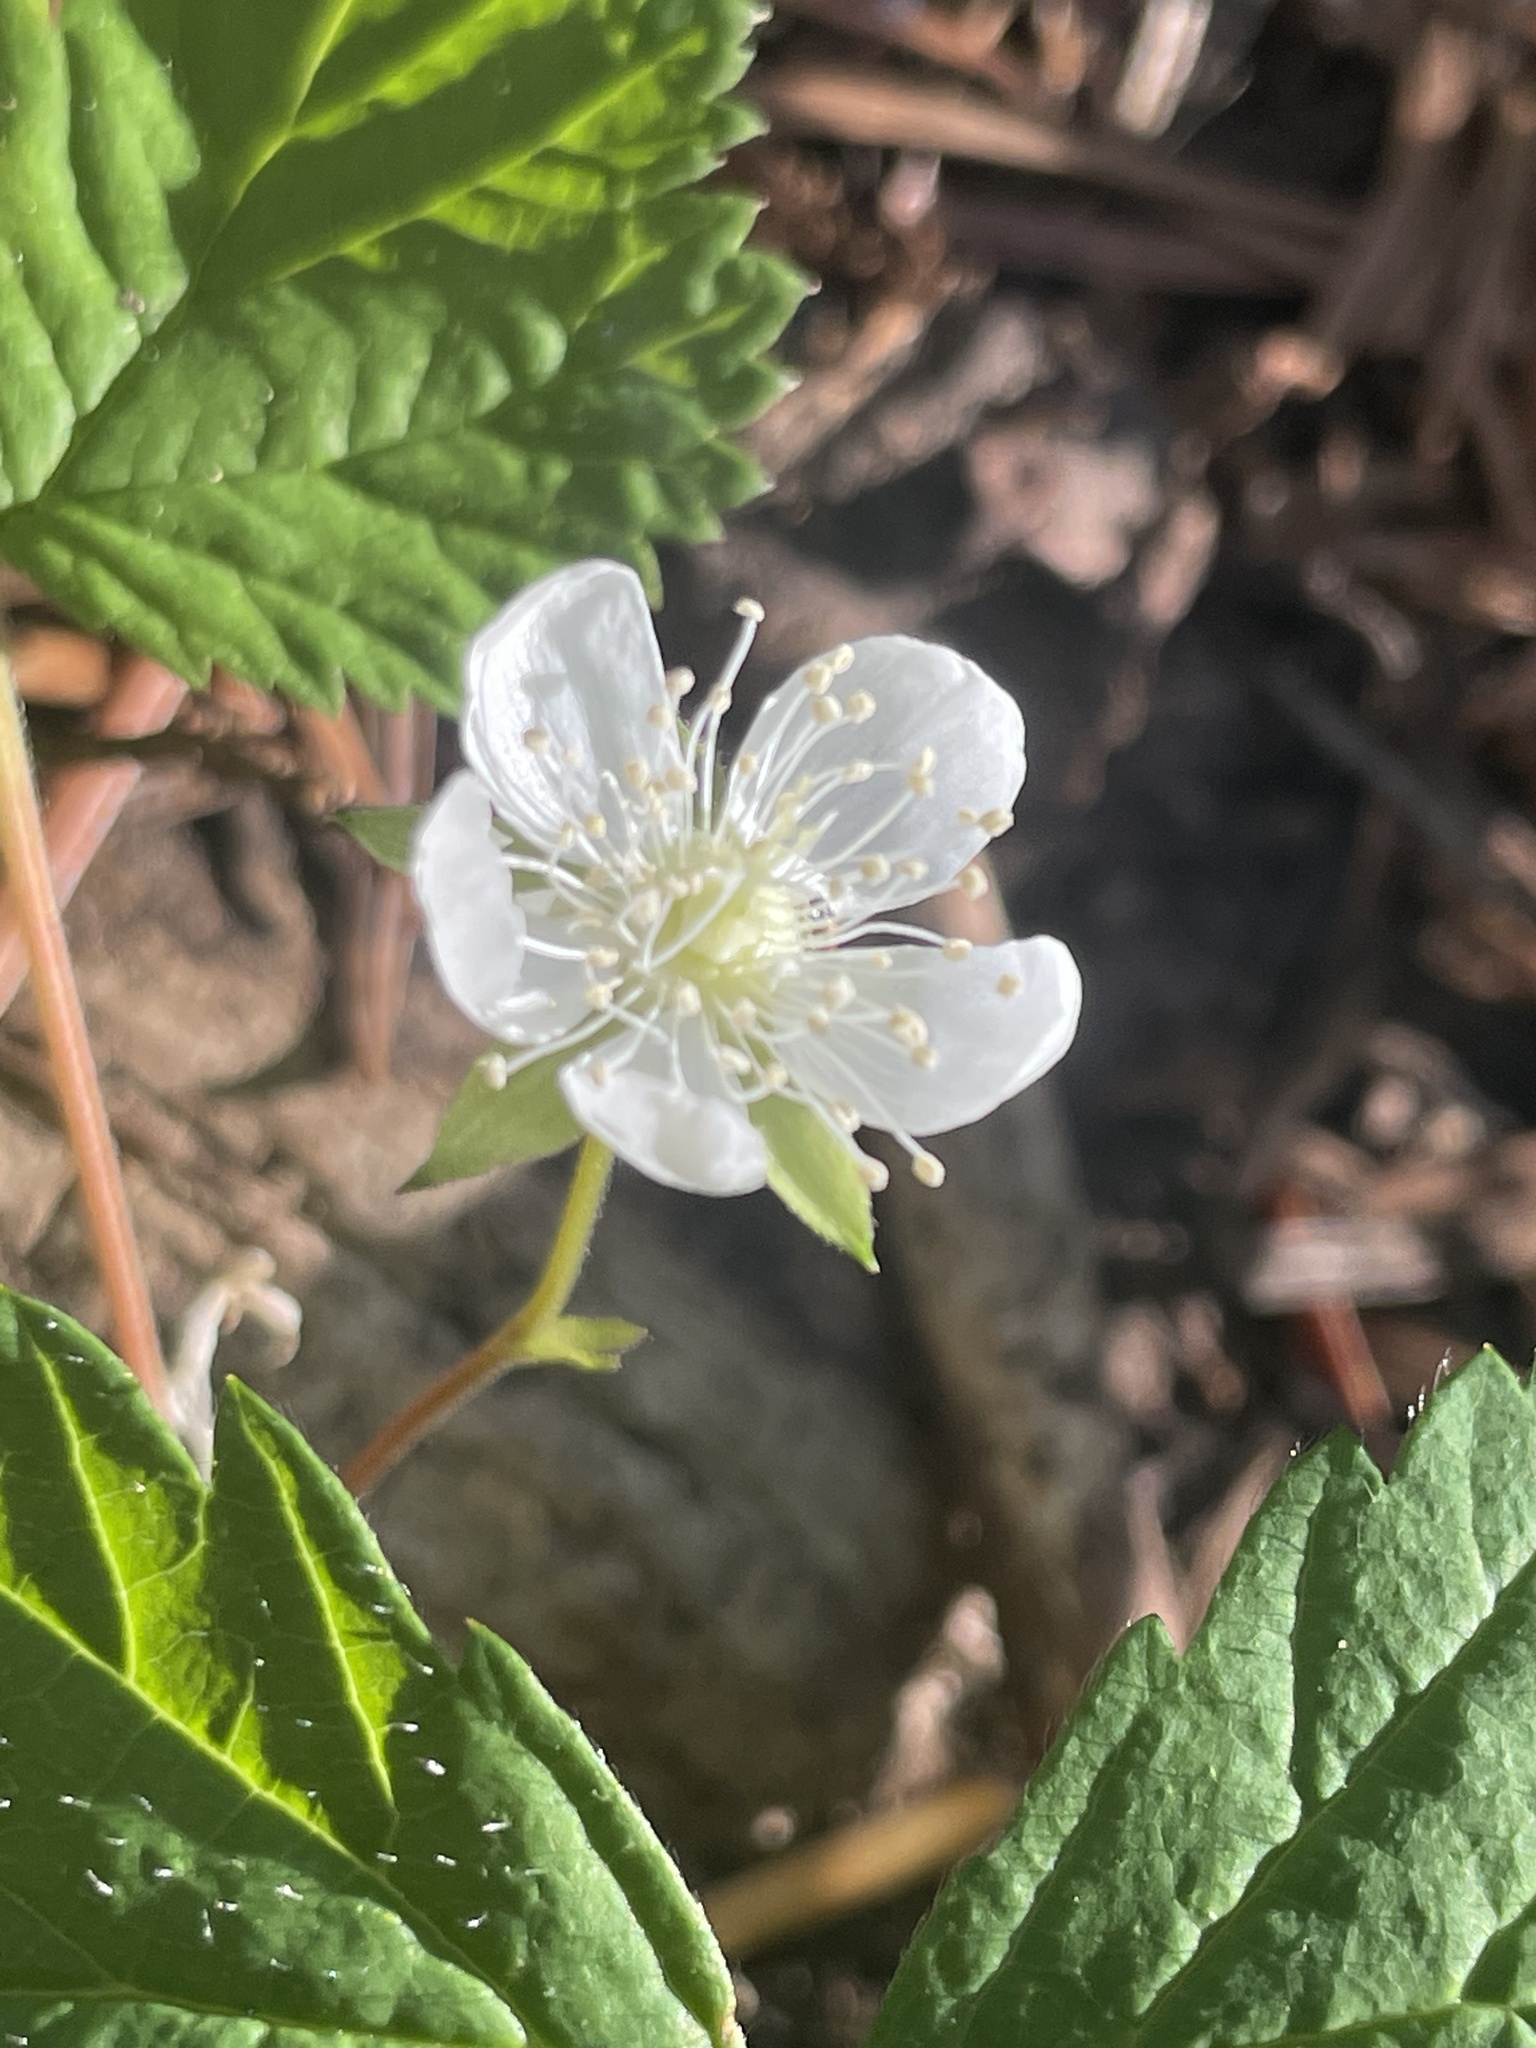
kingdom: Plantae
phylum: Tracheophyta
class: Magnoliopsida
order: Rosales
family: Rosaceae
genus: Rubus
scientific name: Rubus lasiococcus
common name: Dwarf bramble
